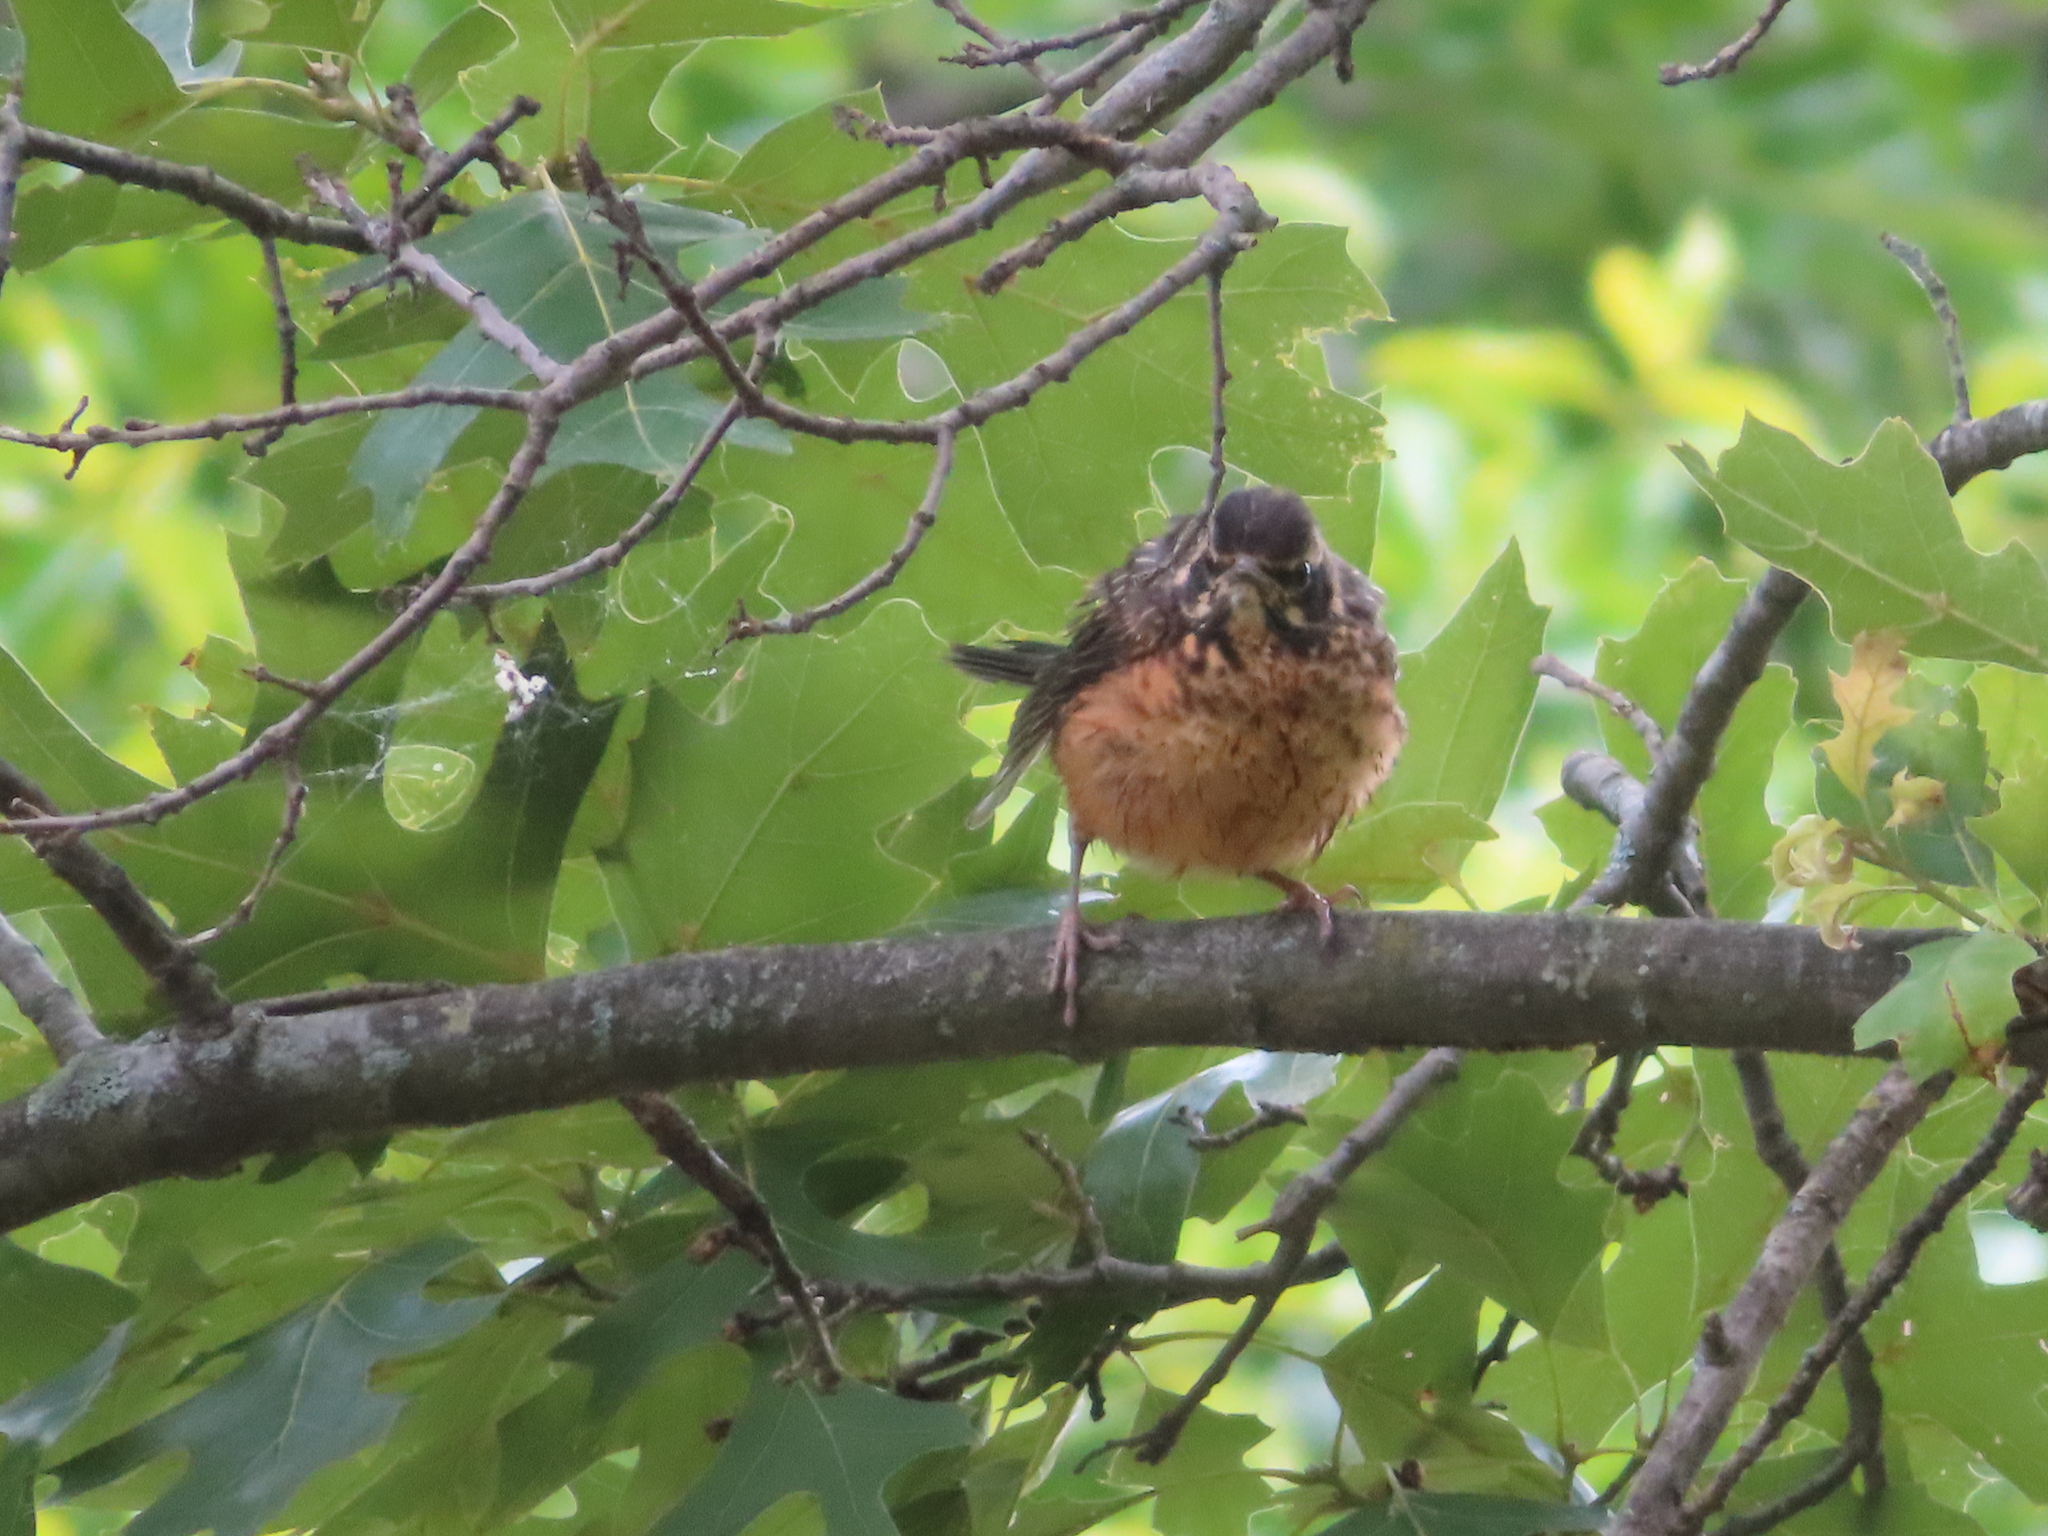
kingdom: Animalia
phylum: Chordata
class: Aves
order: Passeriformes
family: Turdidae
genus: Turdus
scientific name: Turdus migratorius
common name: American robin
